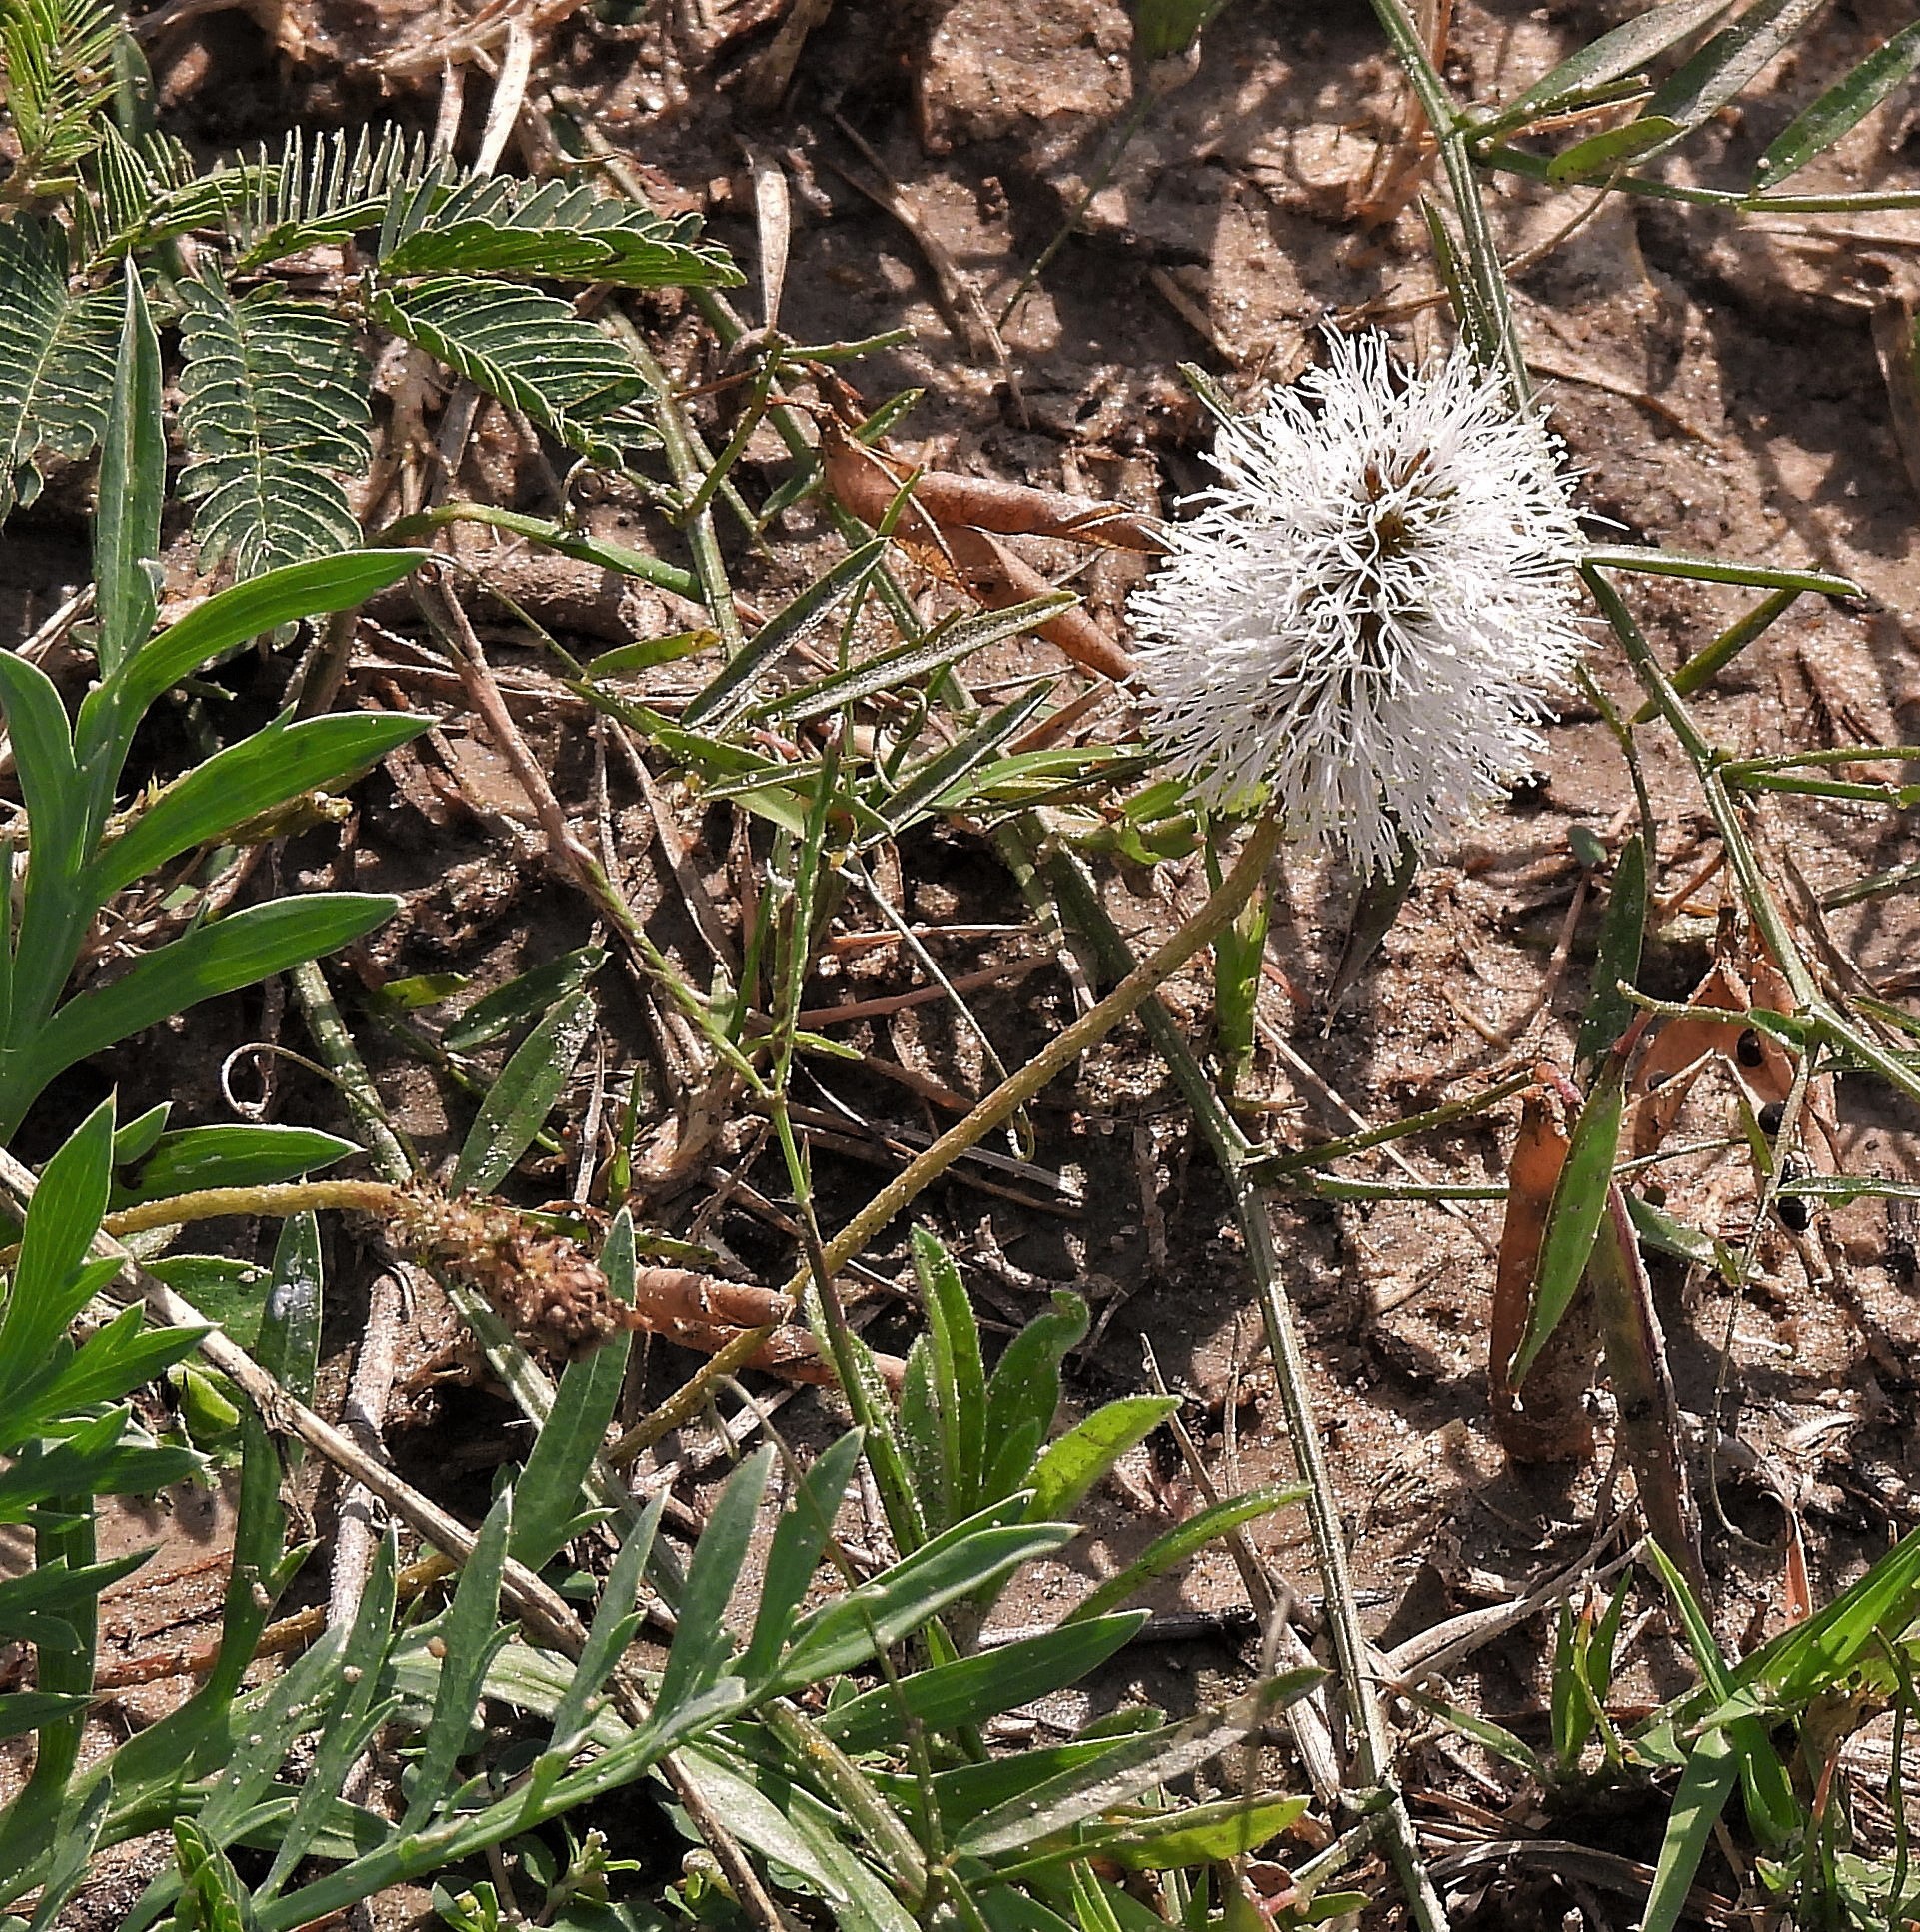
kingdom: Plantae
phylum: Tracheophyta
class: Magnoliopsida
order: Fabales
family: Fabaceae
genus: Mimosa
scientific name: Mimosa strigillosa
